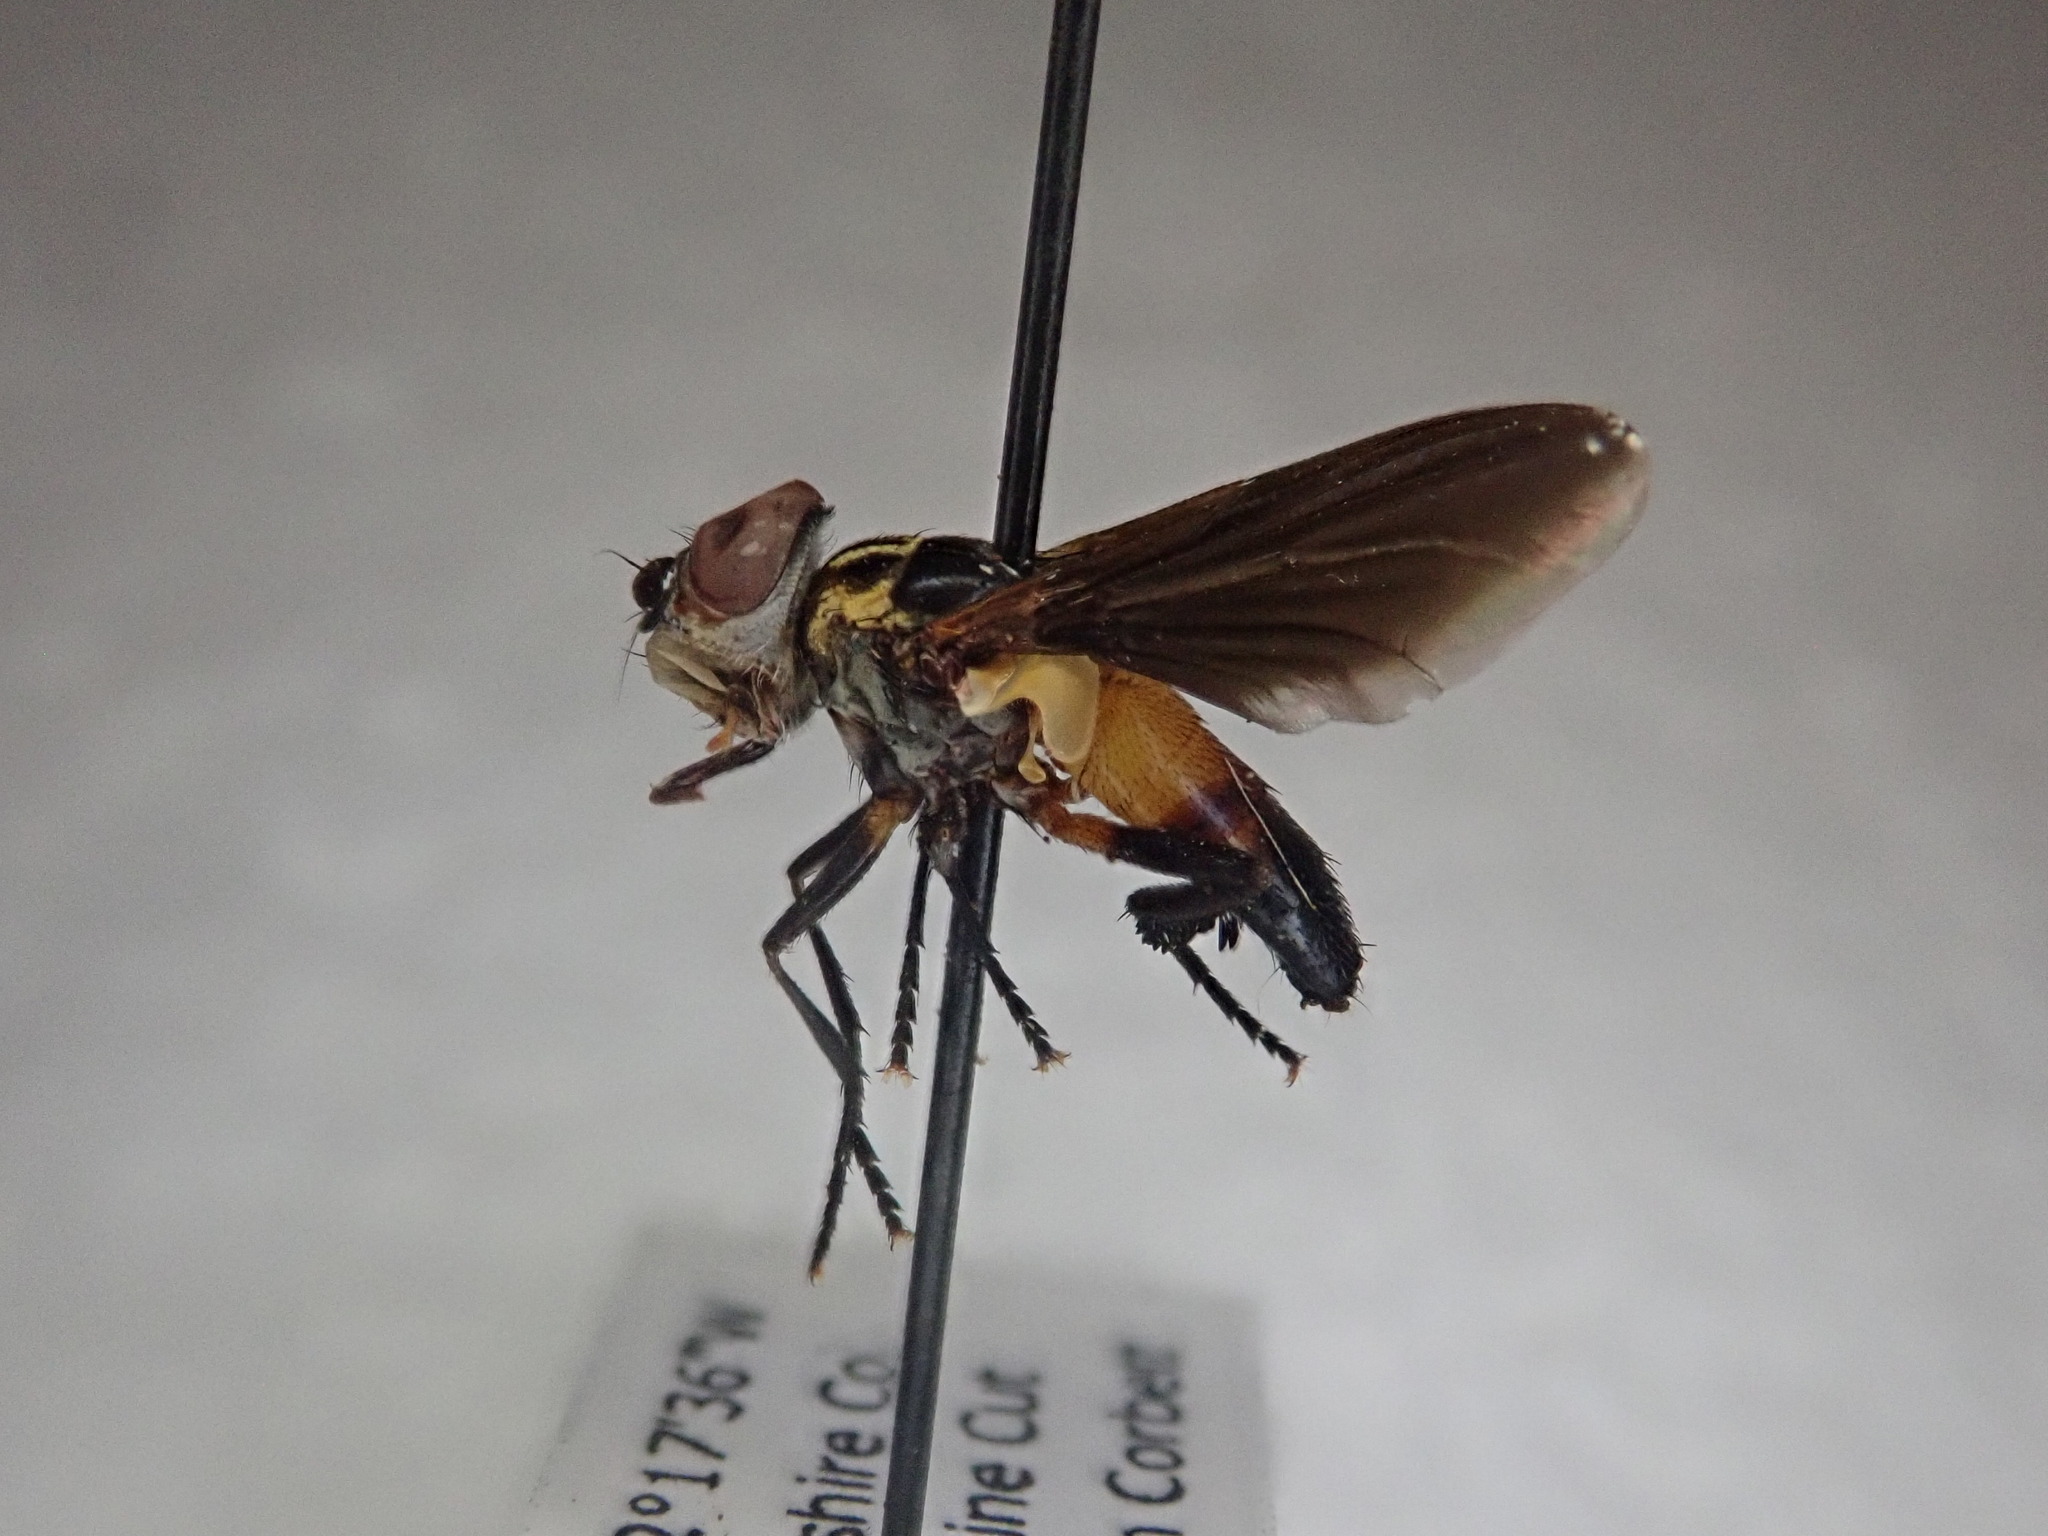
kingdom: Animalia
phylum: Arthropoda
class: Insecta
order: Diptera
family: Tachinidae
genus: Trichopoda
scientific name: Trichopoda pennipes
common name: Tachinid fly
